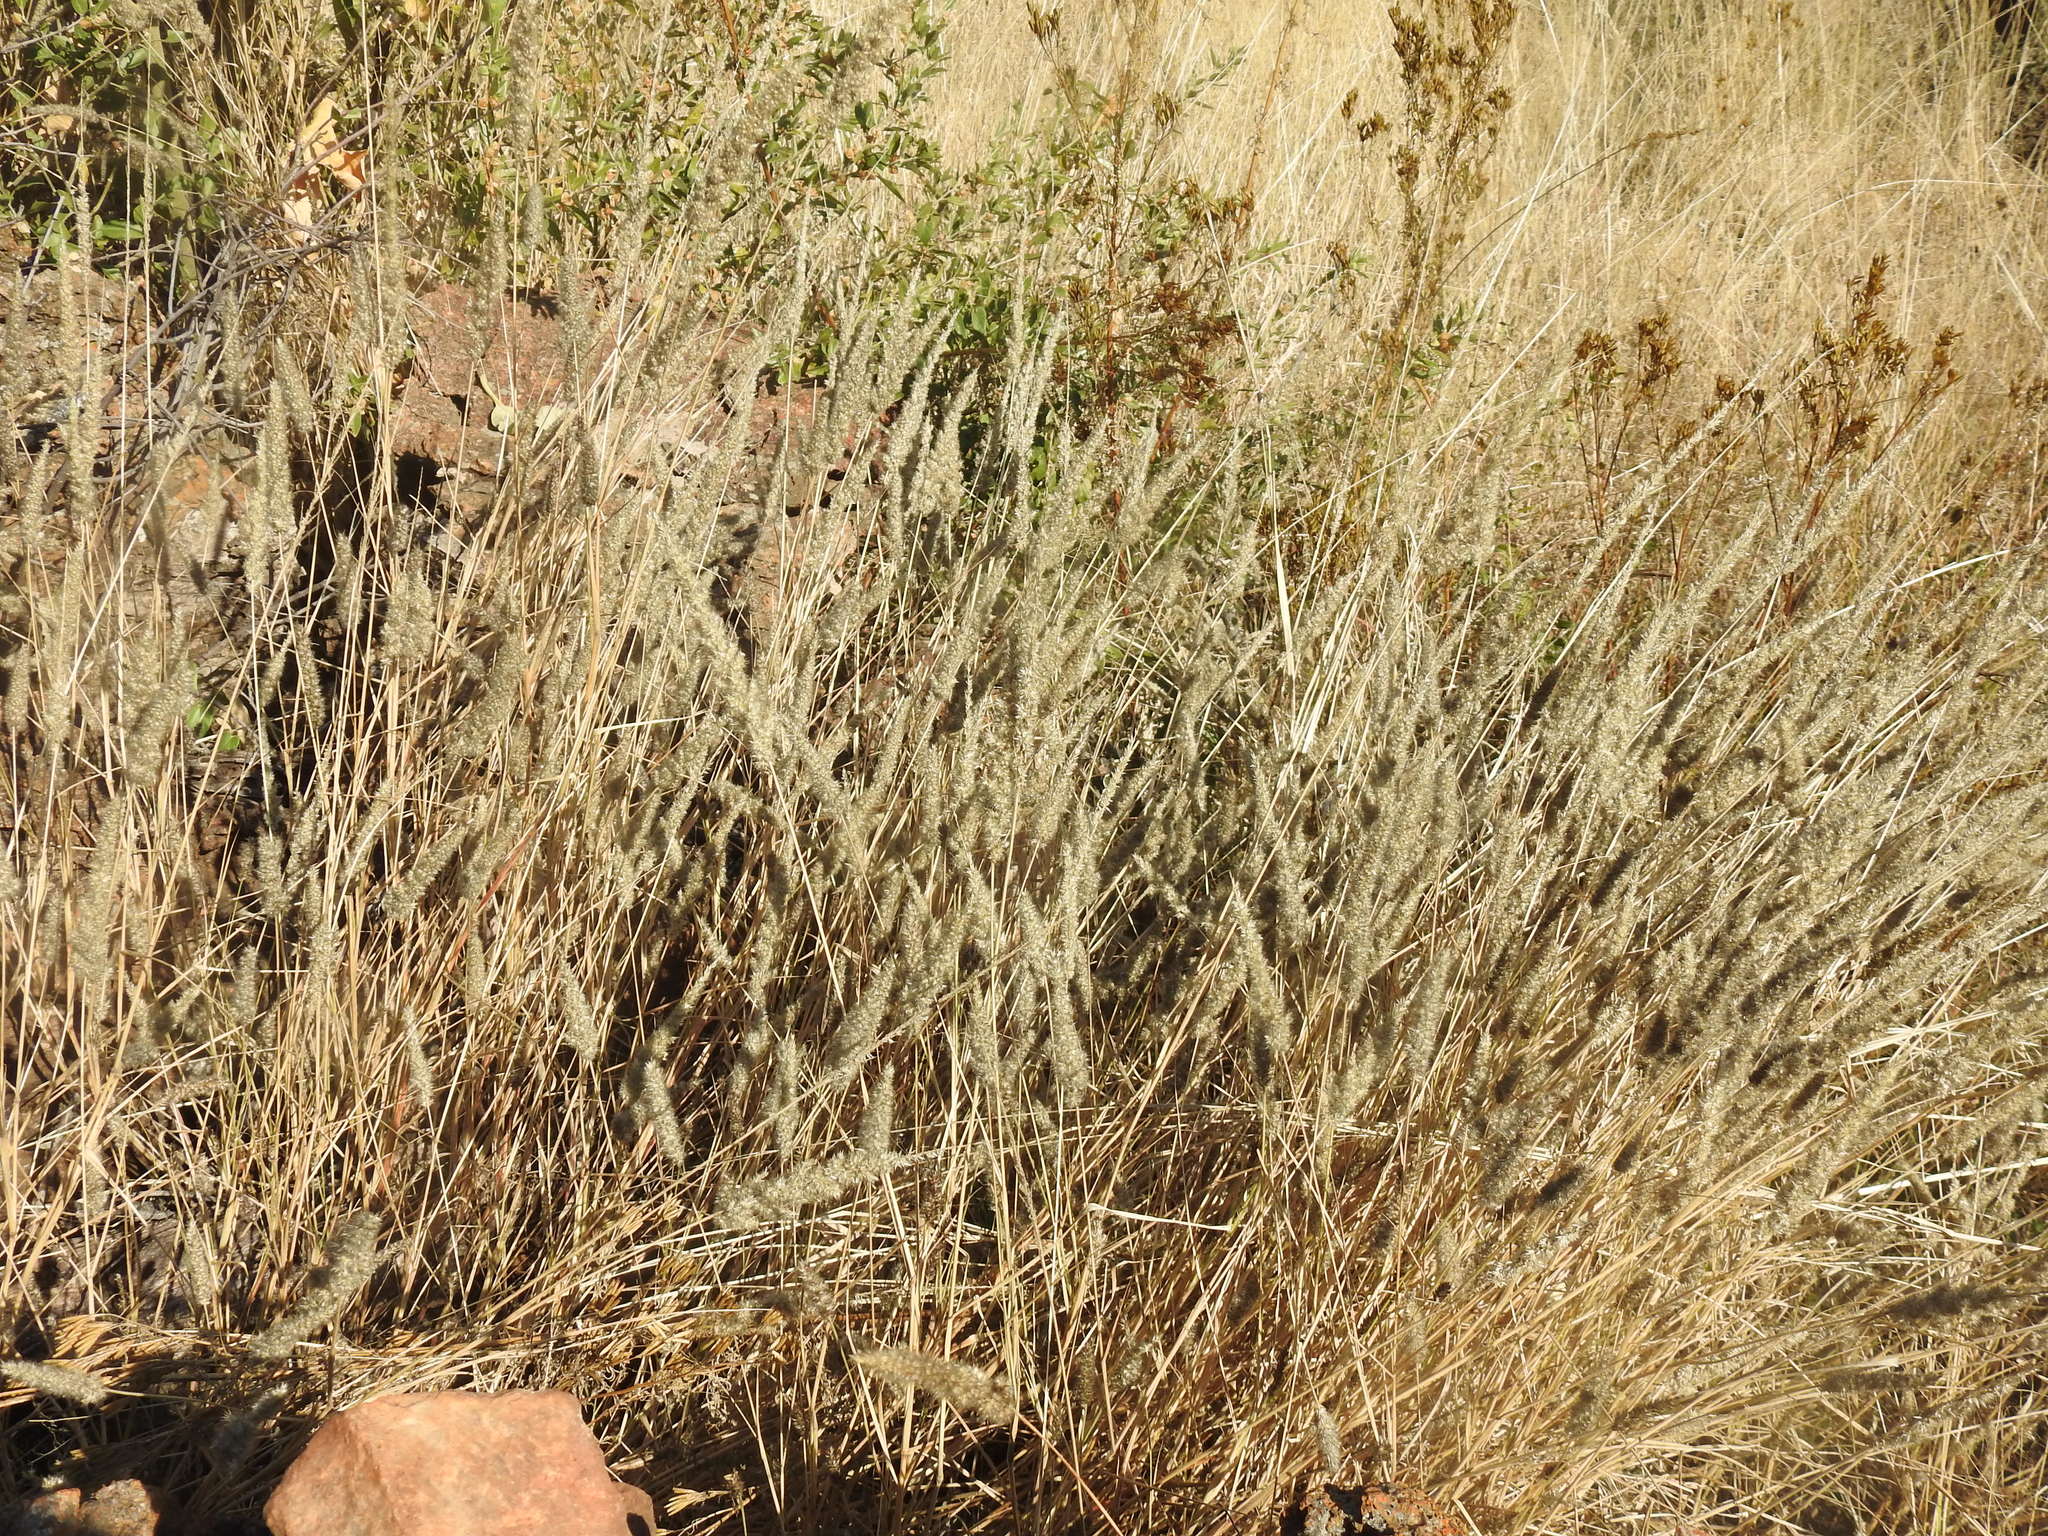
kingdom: Plantae
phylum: Tracheophyta
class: Liliopsida
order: Poales
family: Poaceae
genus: Enneapogon
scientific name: Enneapogon cenchroides
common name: Soft feather pappusgrass
